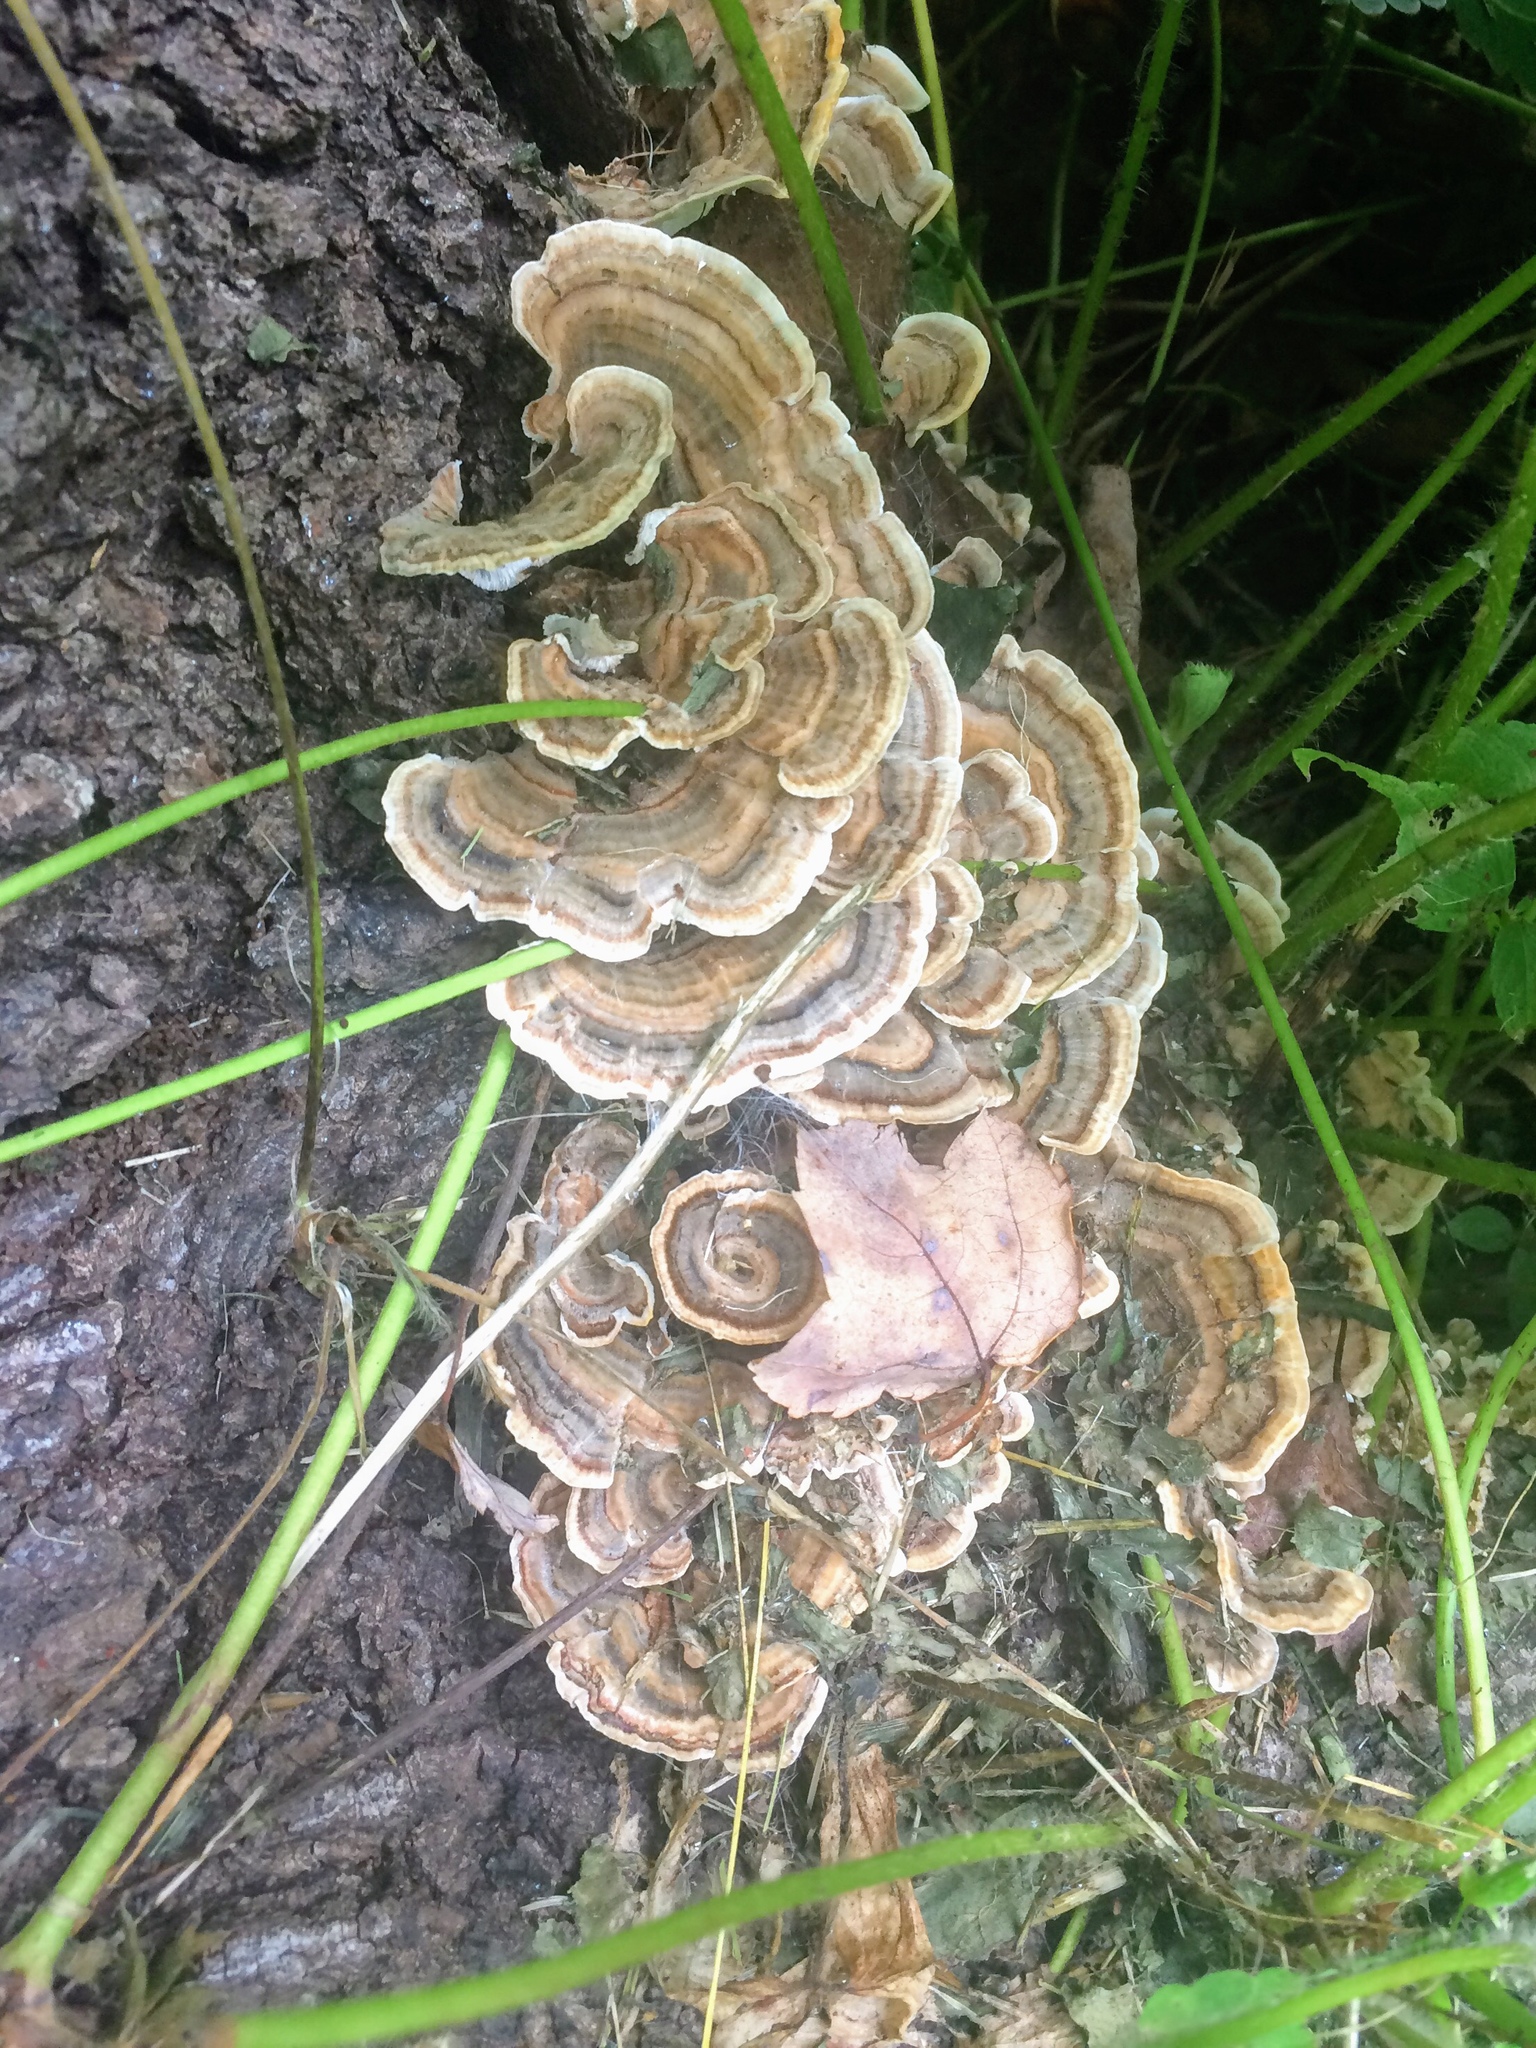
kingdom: Fungi
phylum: Basidiomycota
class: Agaricomycetes
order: Polyporales
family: Polyporaceae
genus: Trametes
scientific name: Trametes versicolor
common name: Turkeytail
